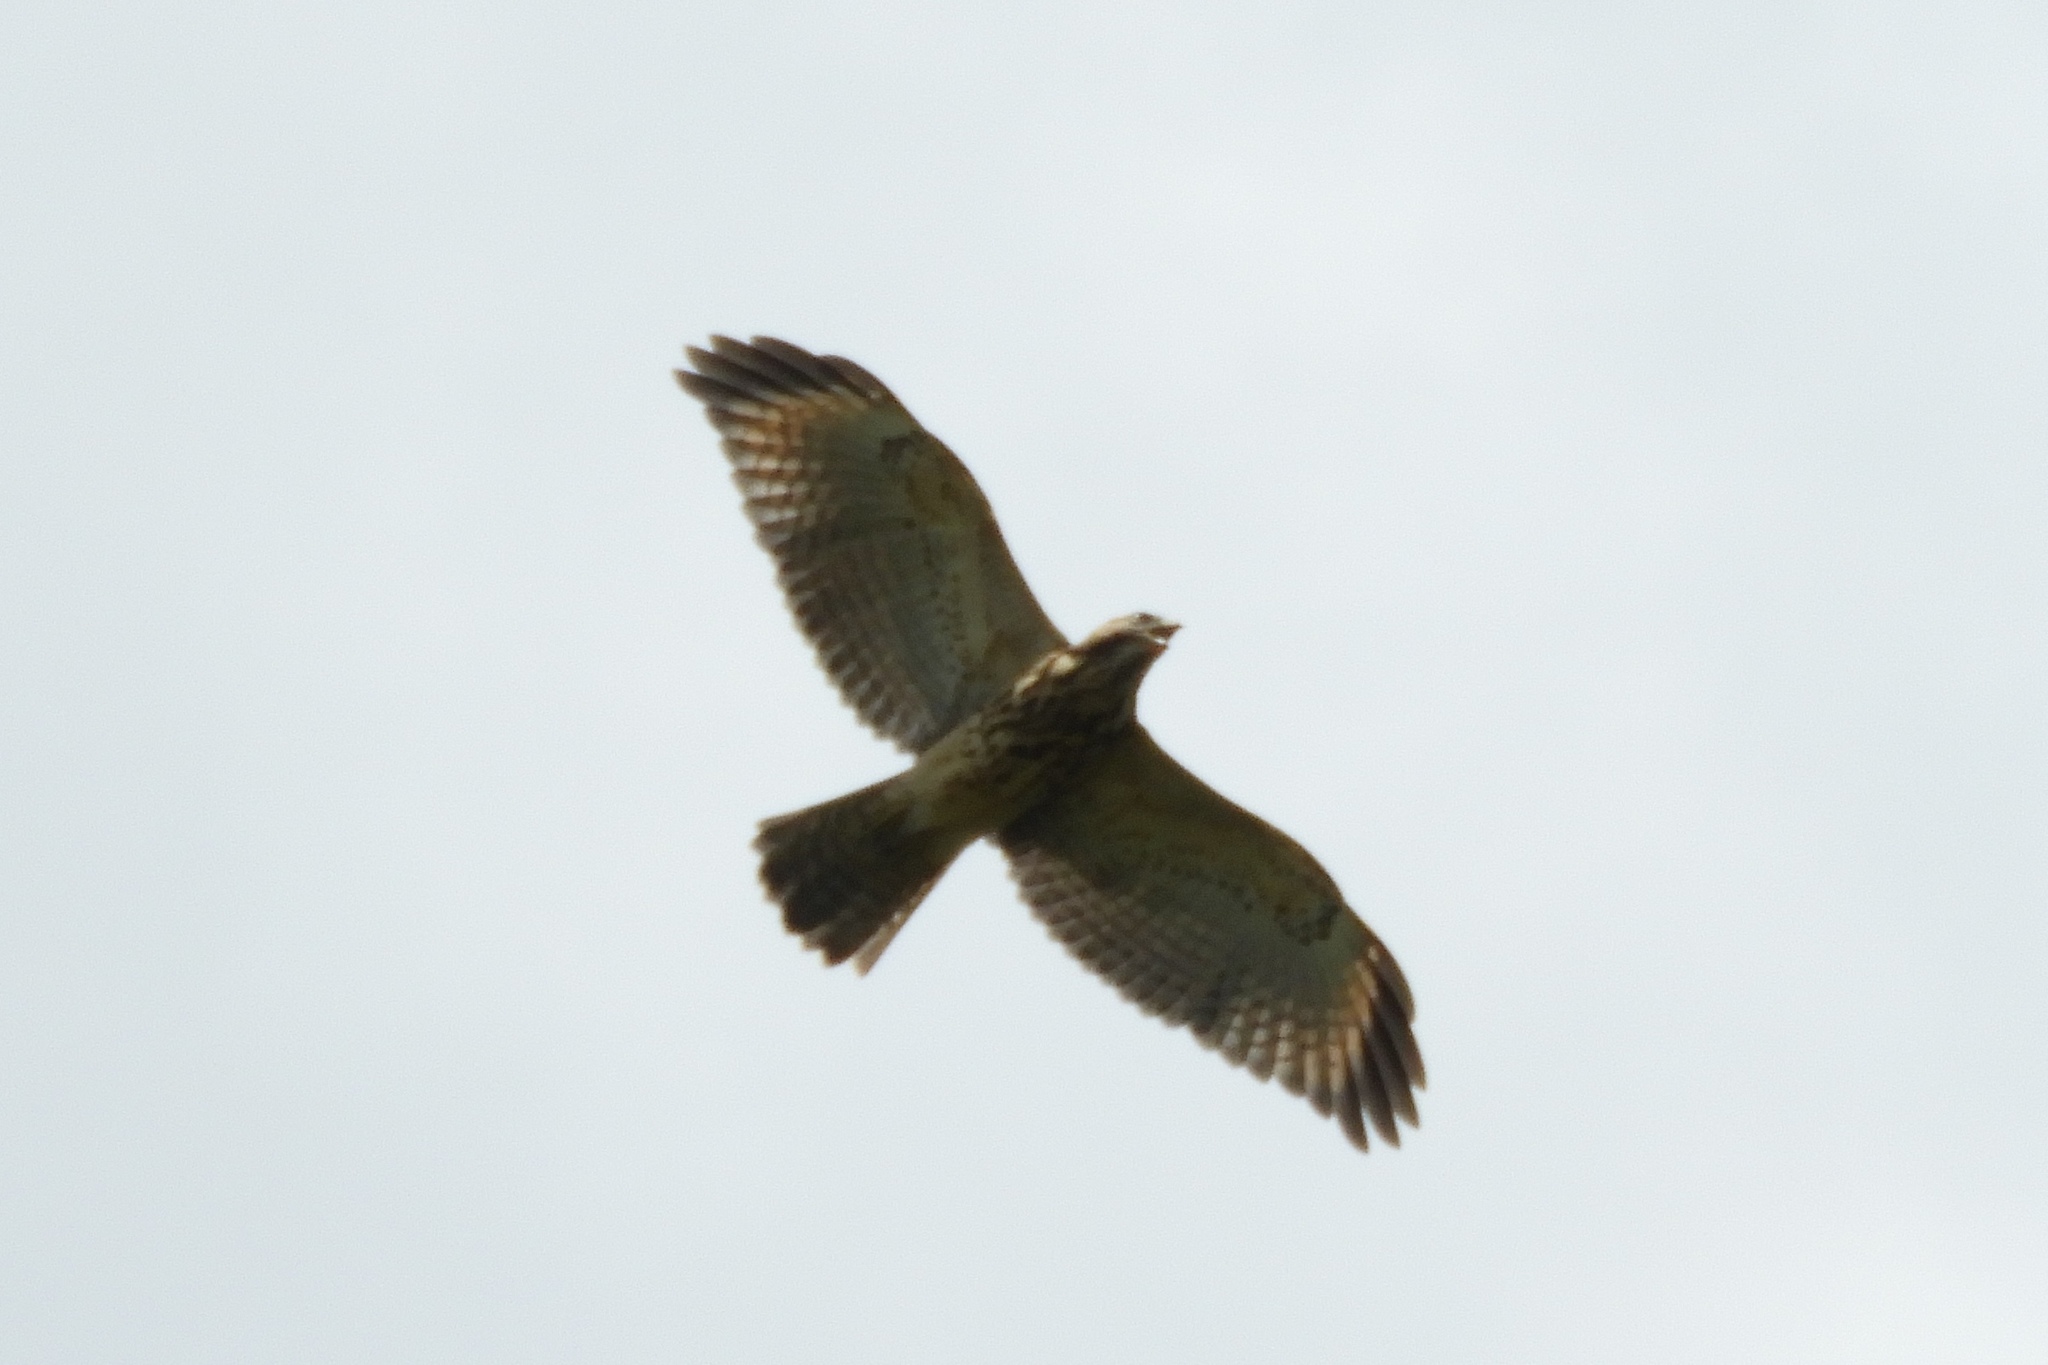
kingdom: Animalia
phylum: Chordata
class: Aves
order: Accipitriformes
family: Accipitridae
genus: Buteo
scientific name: Buteo lineatus
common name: Red-shouldered hawk
